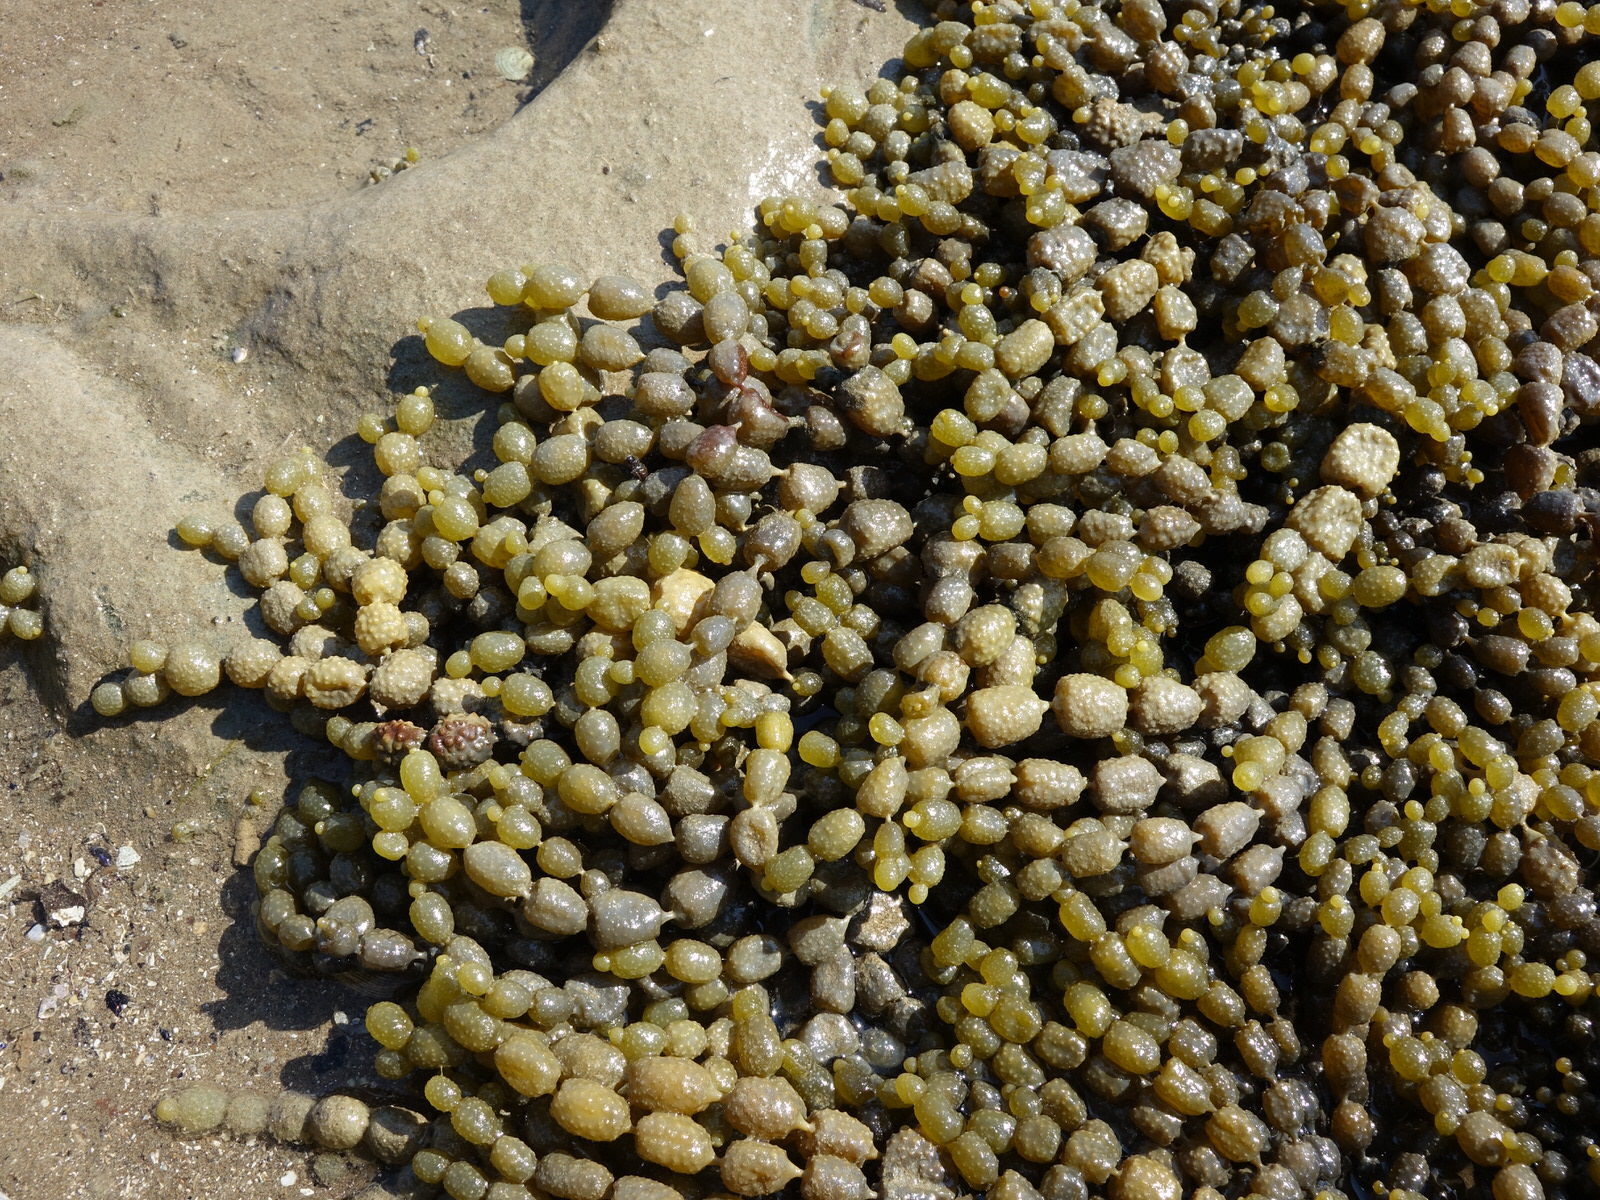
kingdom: Chromista
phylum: Ochrophyta
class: Phaeophyceae
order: Fucales
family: Hormosiraceae
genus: Hormosira
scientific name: Hormosira banksii
